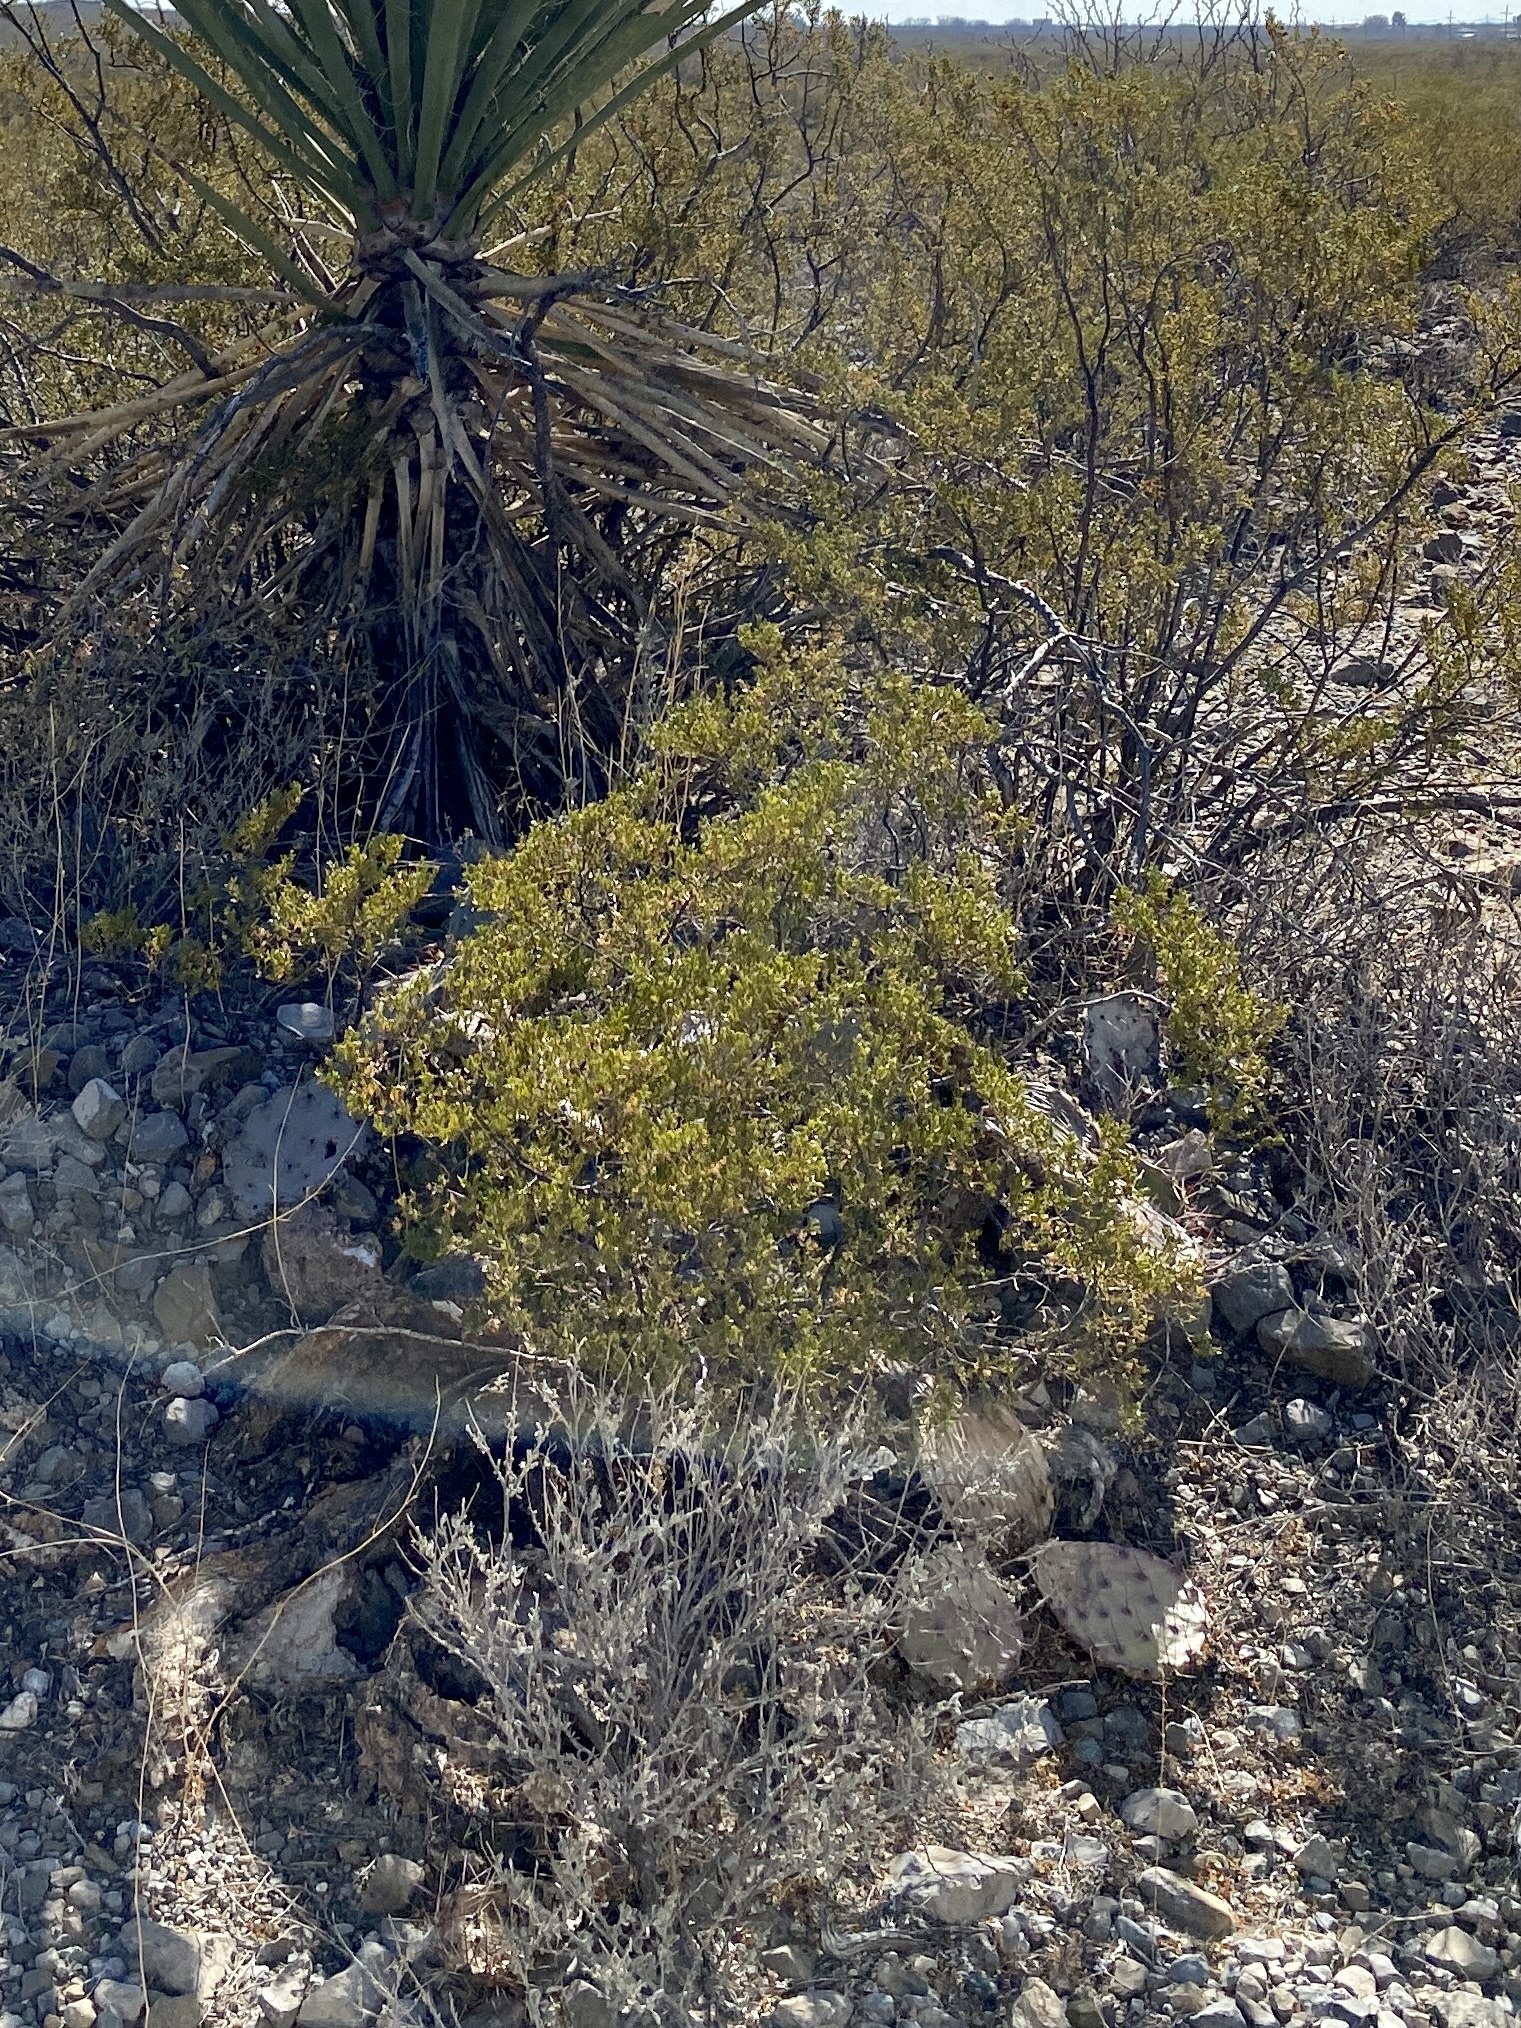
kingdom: Plantae
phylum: Tracheophyta
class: Magnoliopsida
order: Zygophyllales
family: Zygophyllaceae
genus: Larrea
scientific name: Larrea tridentata
